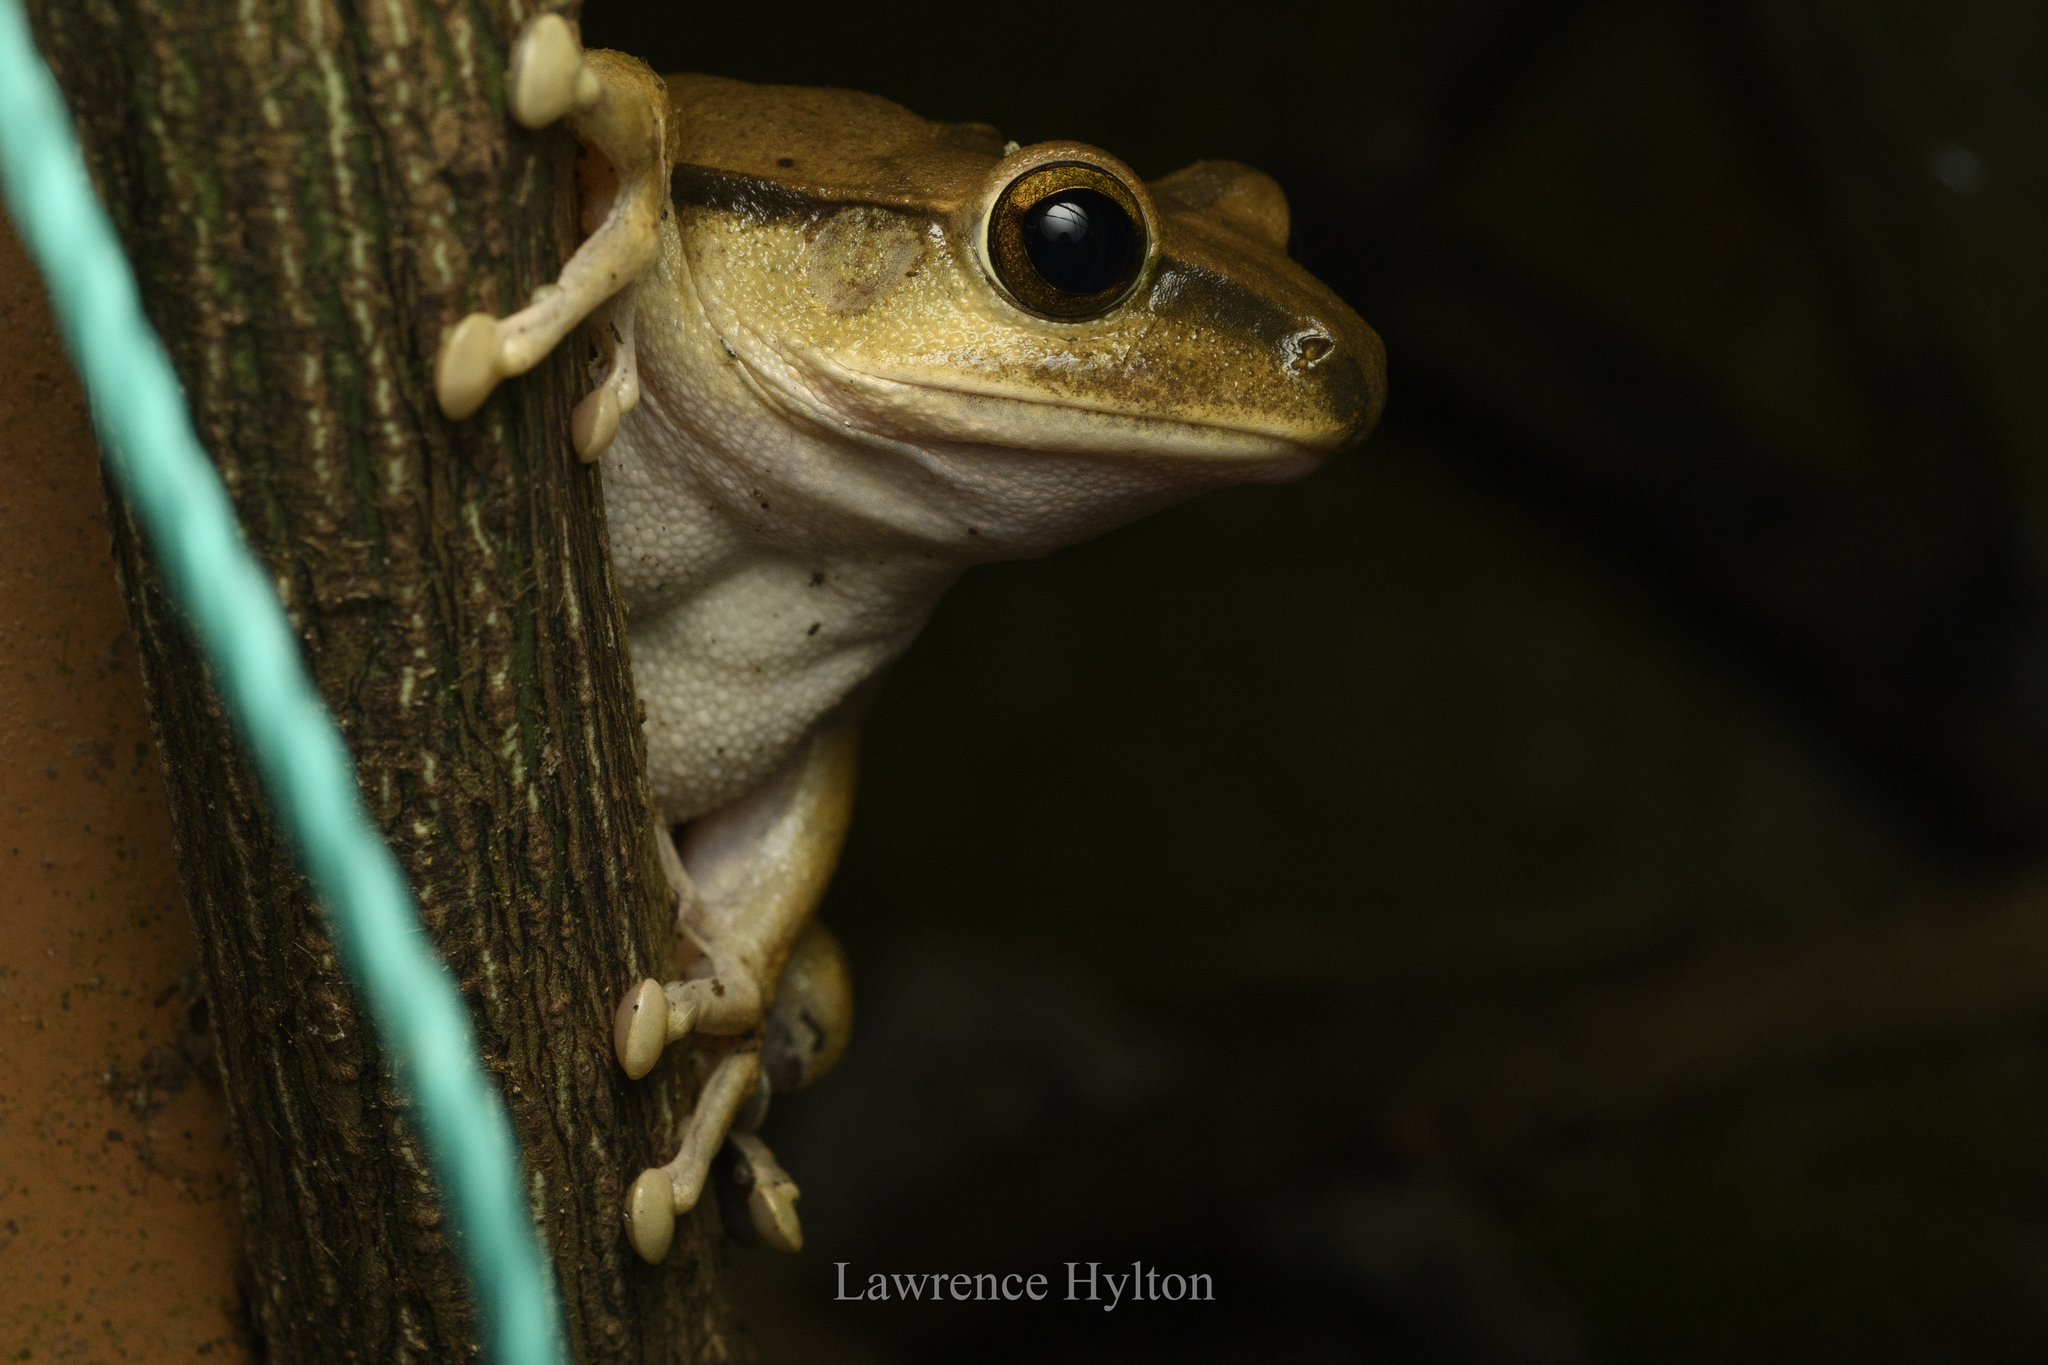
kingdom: Animalia
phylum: Chordata
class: Amphibia
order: Anura
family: Rhacophoridae
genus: Polypedates
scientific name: Polypedates megacephalus
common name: Hong kong whipping frog
